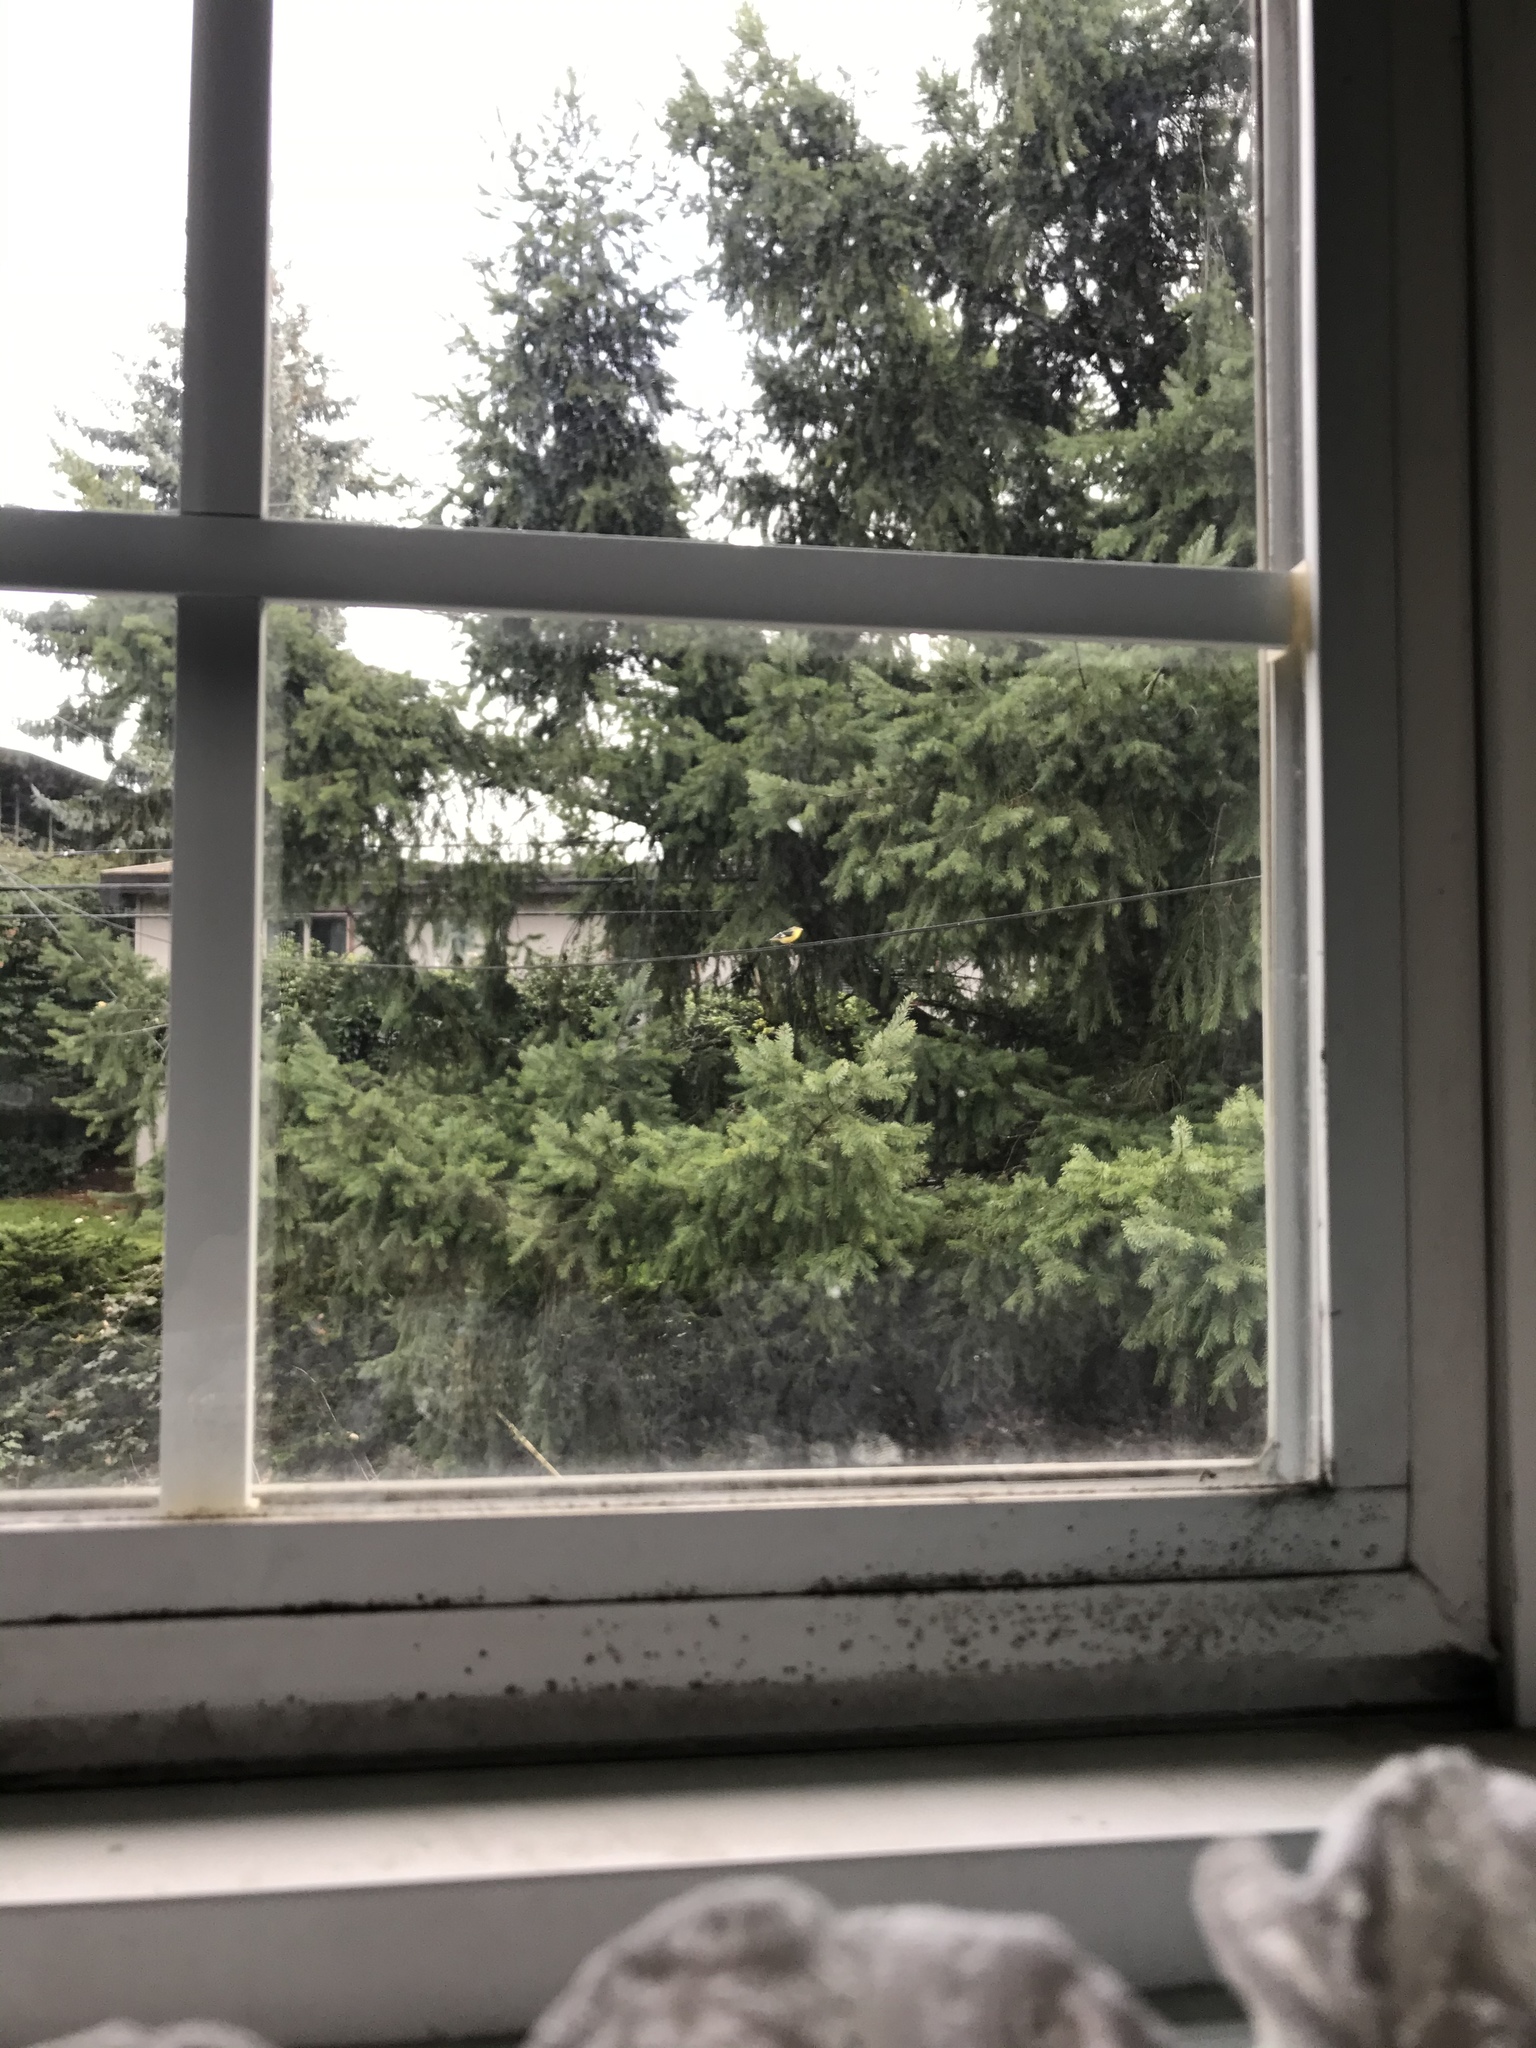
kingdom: Animalia
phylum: Chordata
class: Aves
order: Passeriformes
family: Fringillidae
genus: Spinus
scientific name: Spinus psaltria
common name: Lesser goldfinch
